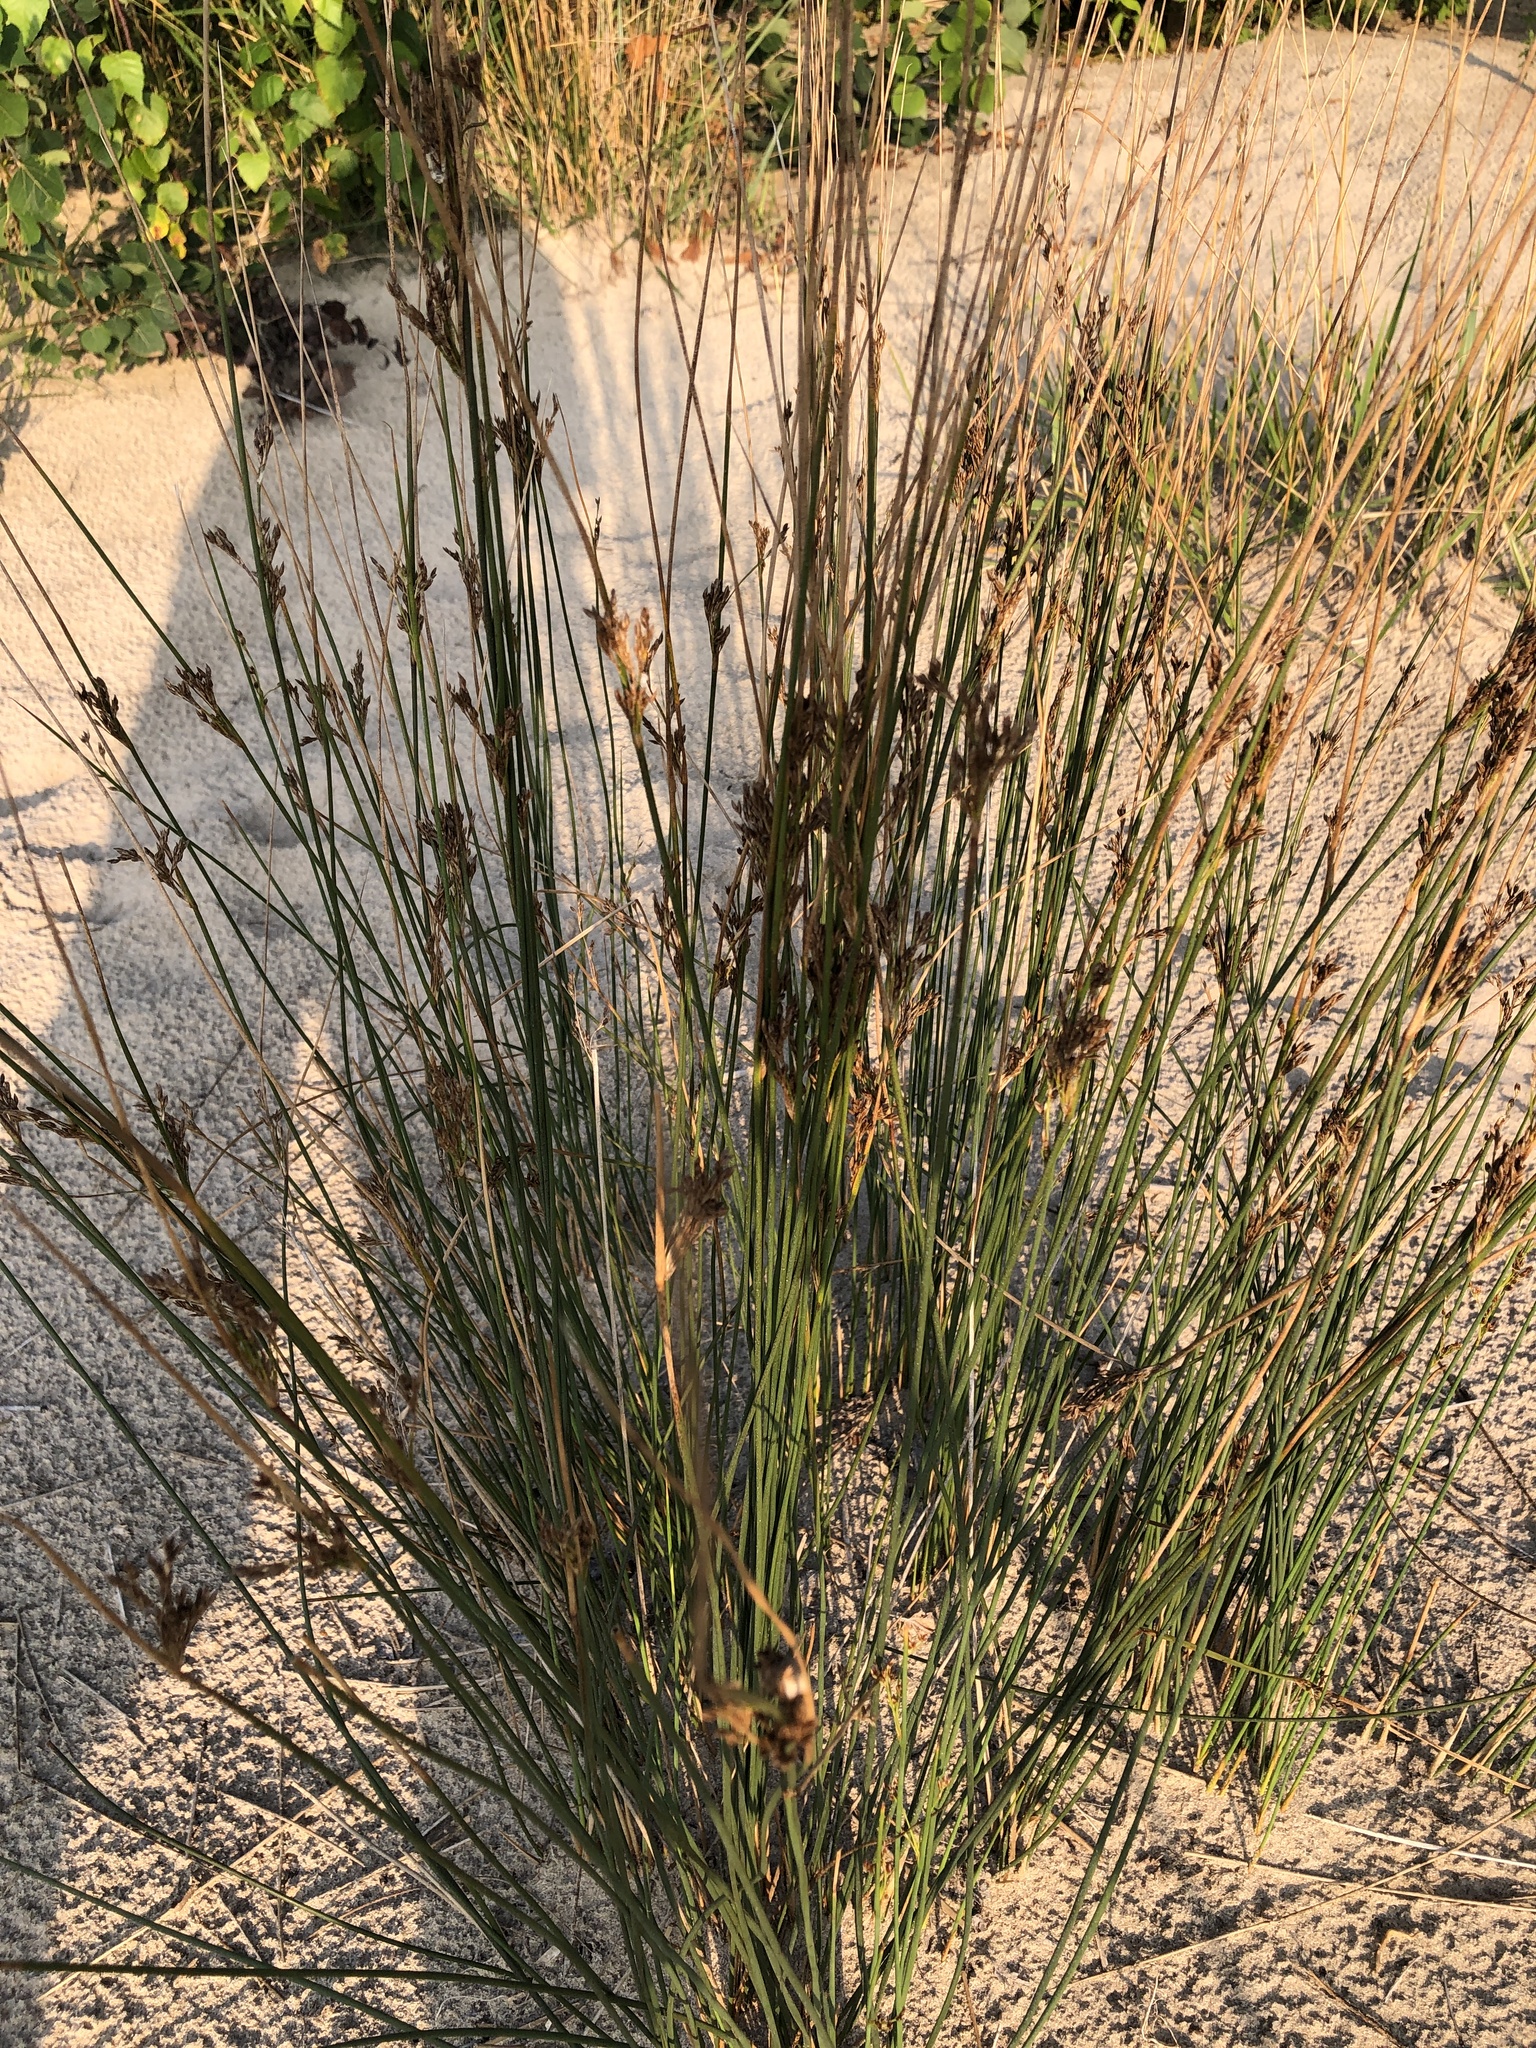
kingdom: Plantae
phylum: Tracheophyta
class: Liliopsida
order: Poales
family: Juncaceae
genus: Juncus
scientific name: Juncus balticus
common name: Baltic rush
